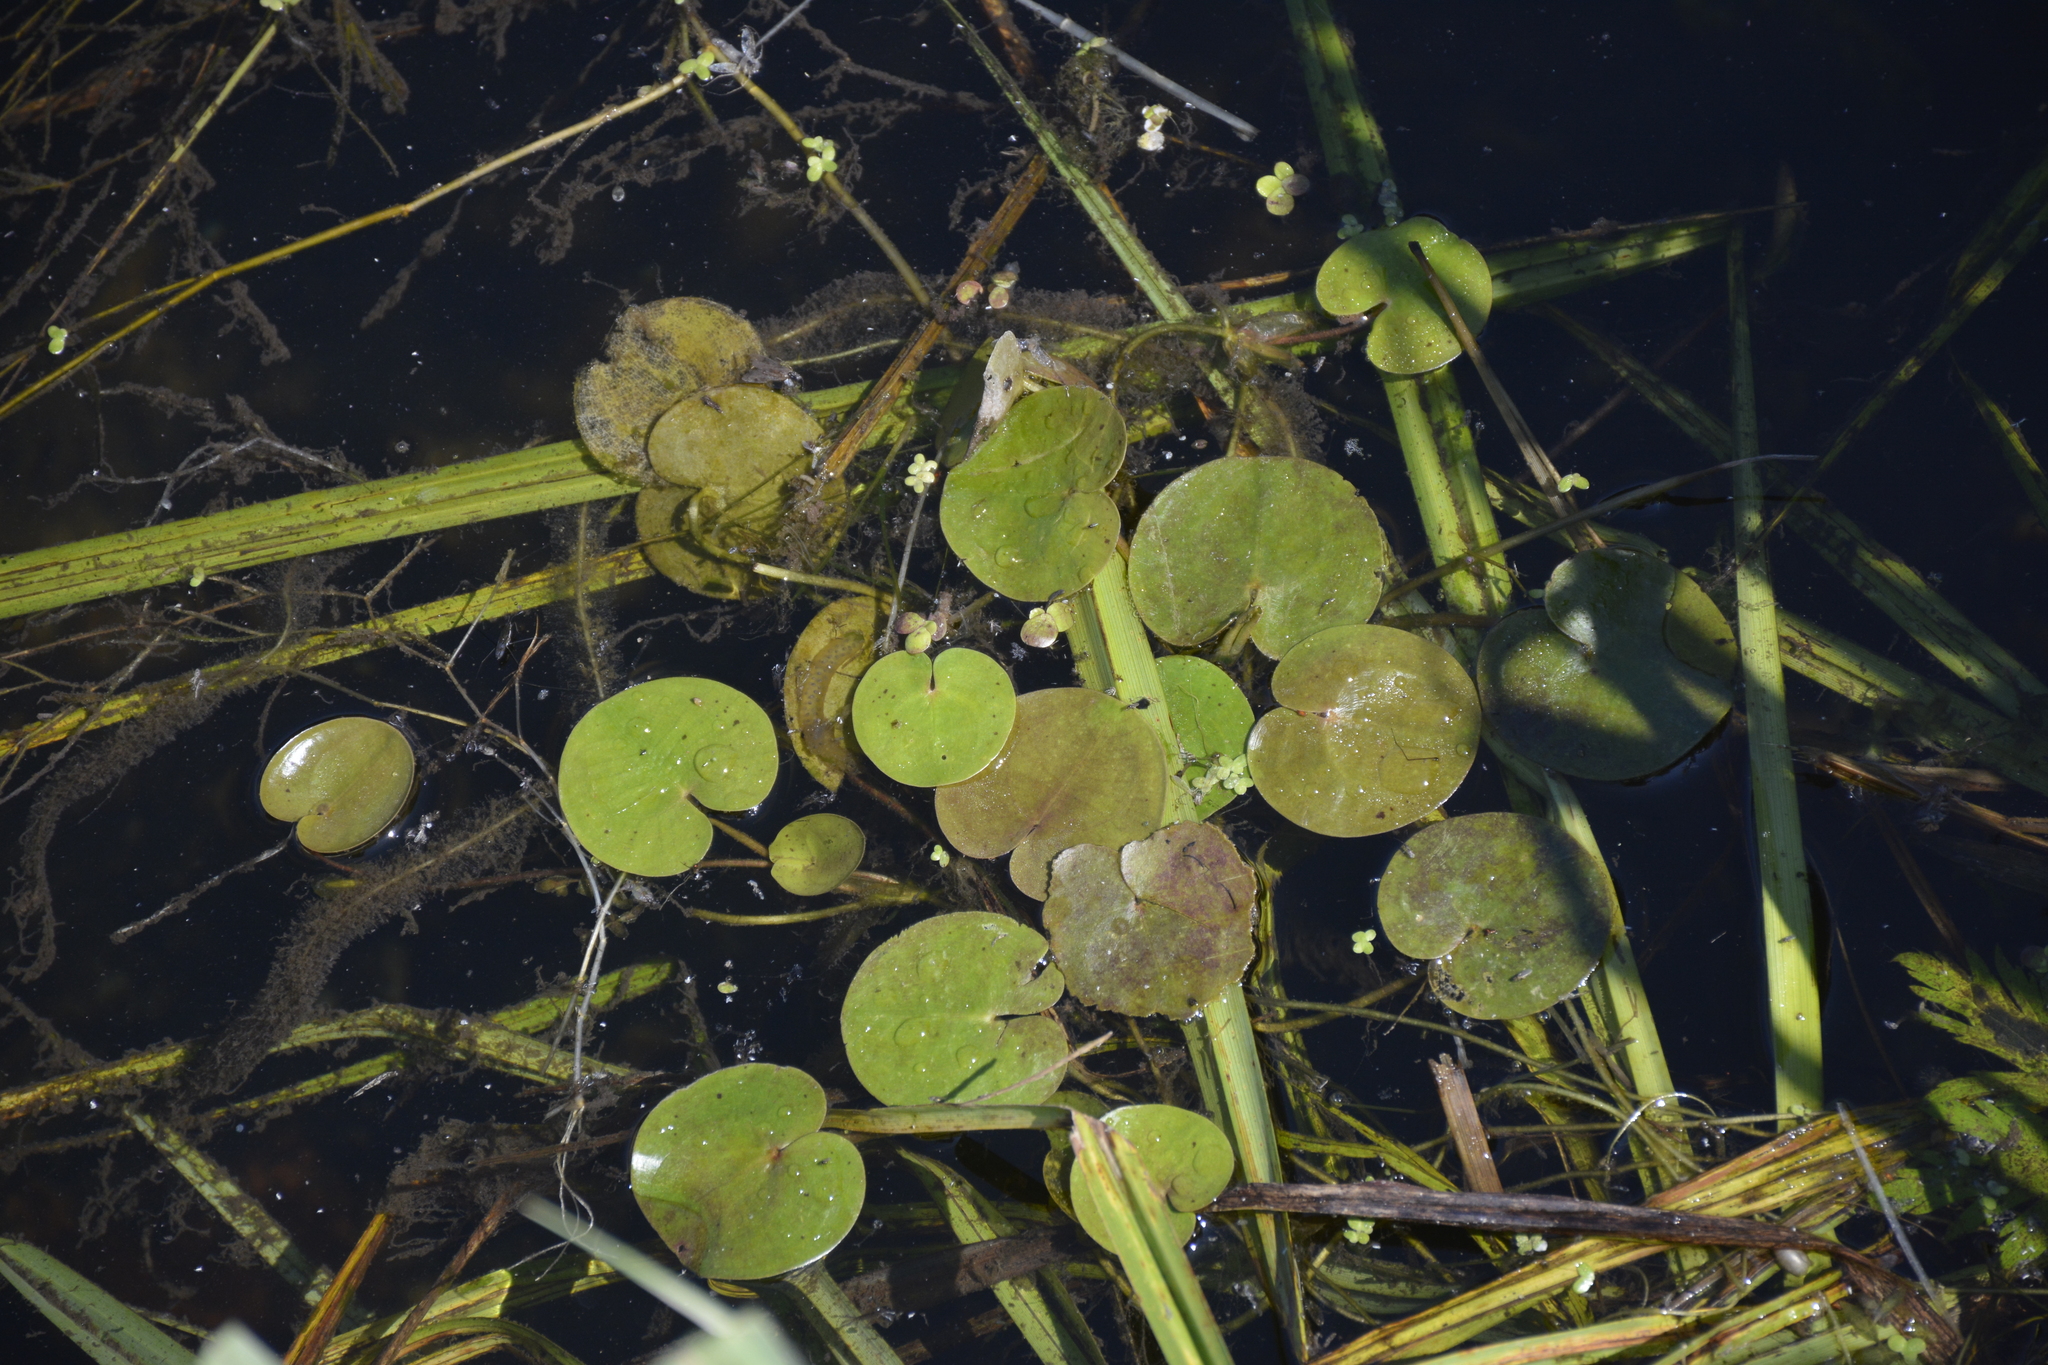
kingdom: Plantae
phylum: Tracheophyta
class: Liliopsida
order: Alismatales
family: Hydrocharitaceae
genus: Hydrocharis
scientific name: Hydrocharis morsus-ranae
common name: Frogbit
